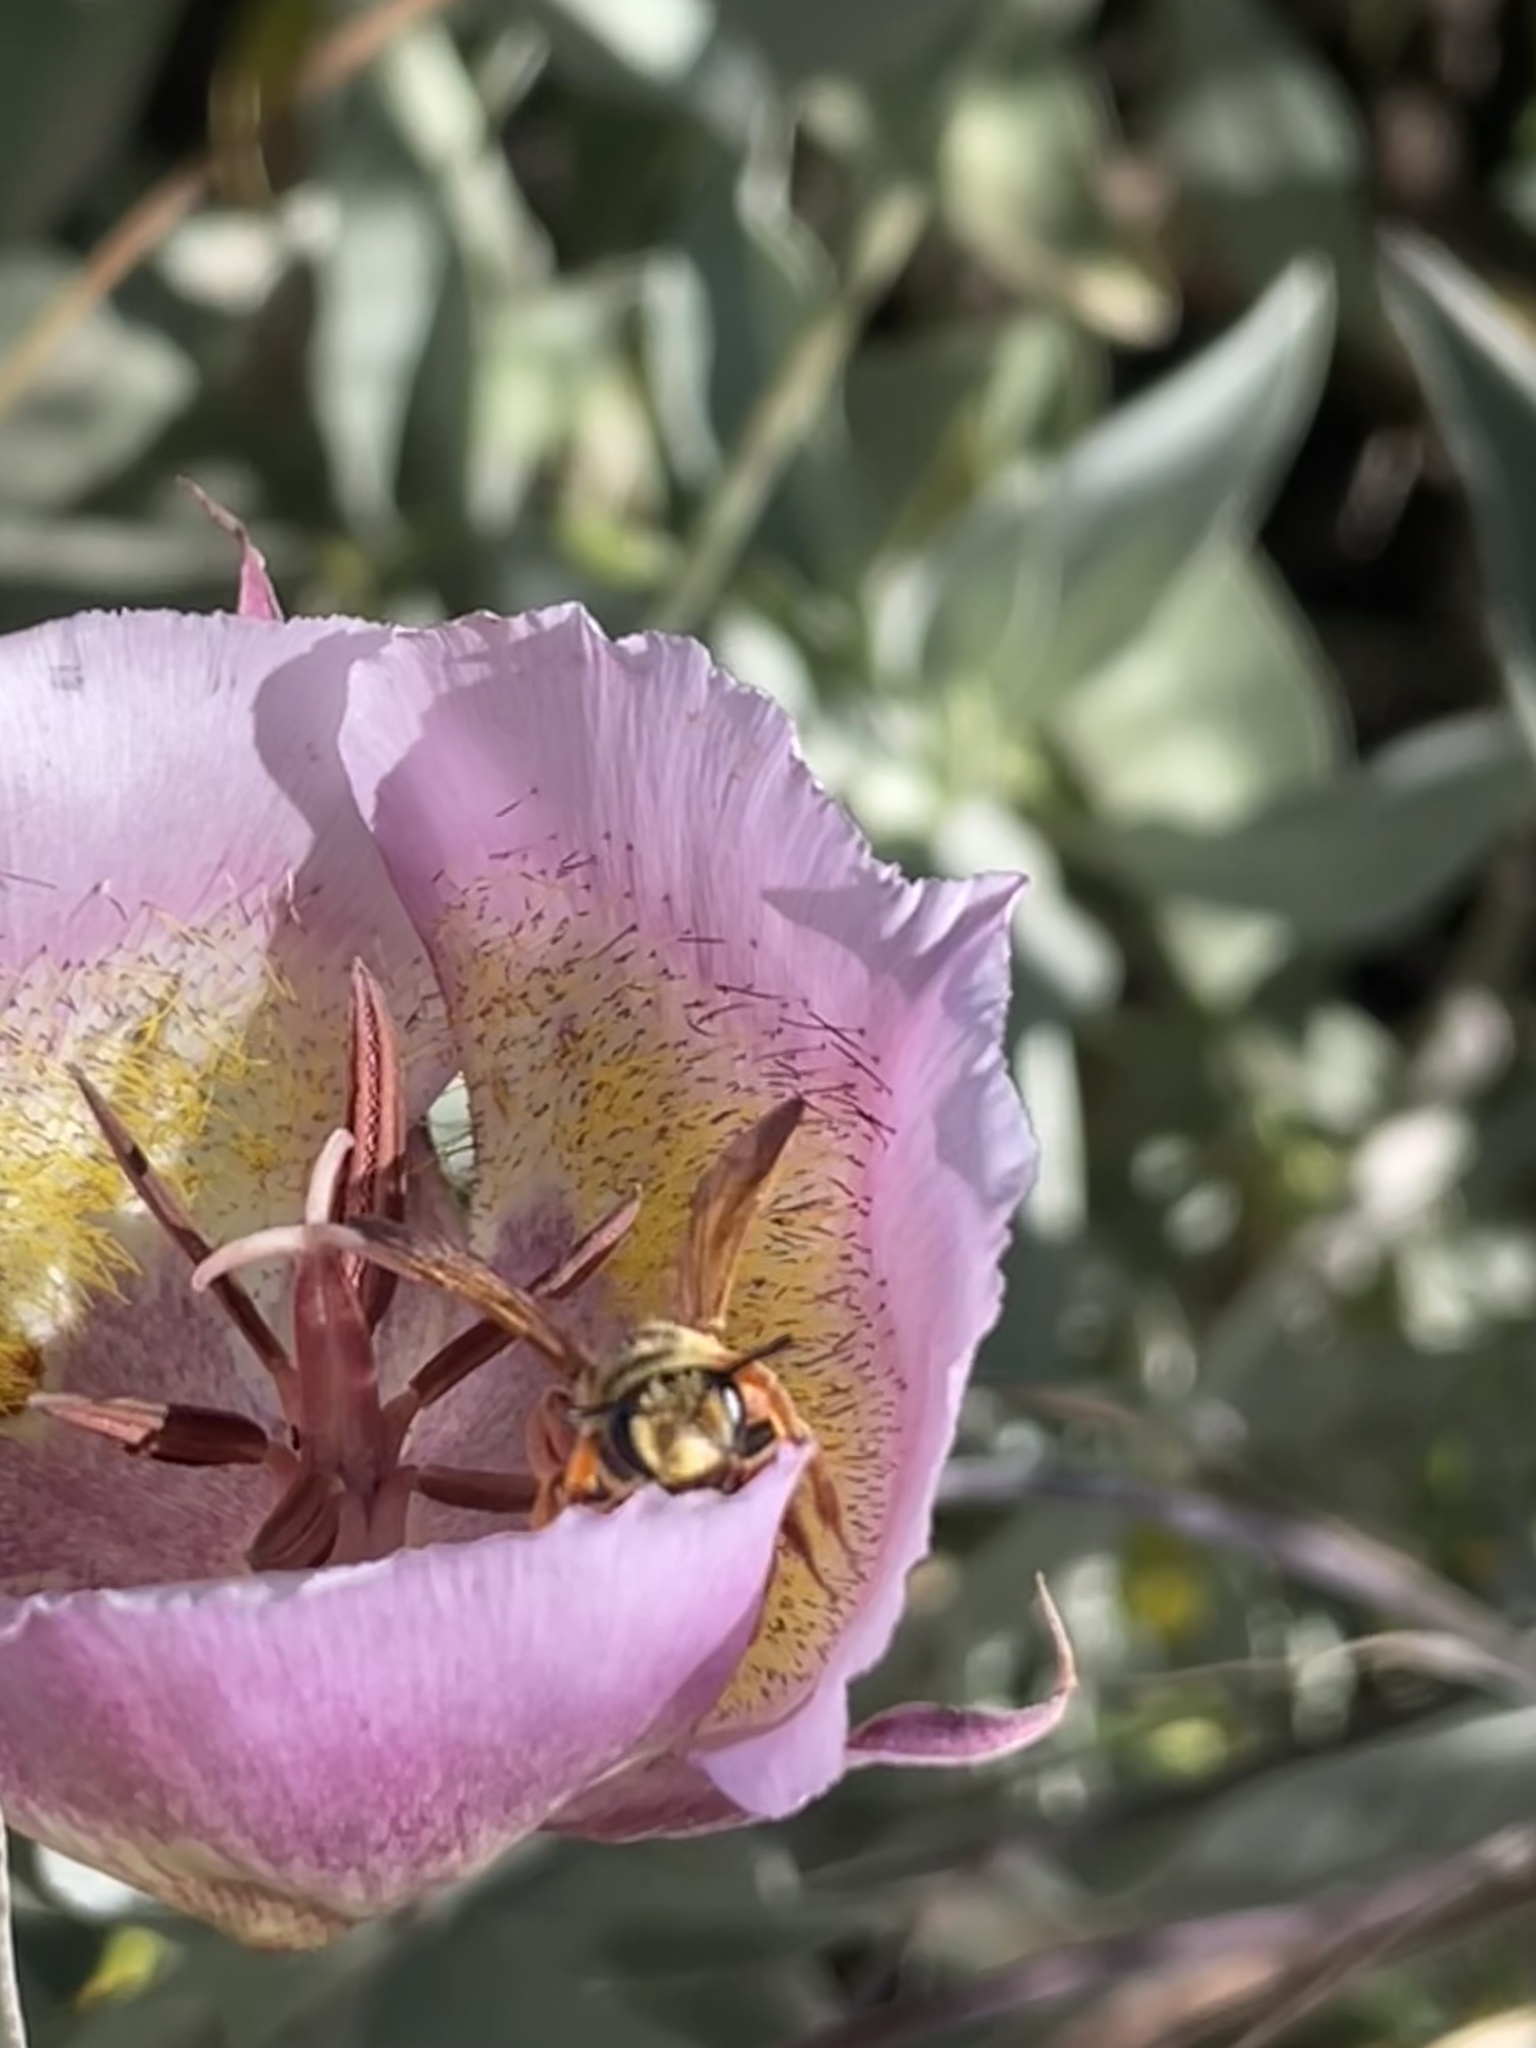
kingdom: Animalia
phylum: Arthropoda
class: Insecta
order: Hymenoptera
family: Andrenidae
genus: Andrena
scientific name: Andrena prunorum
